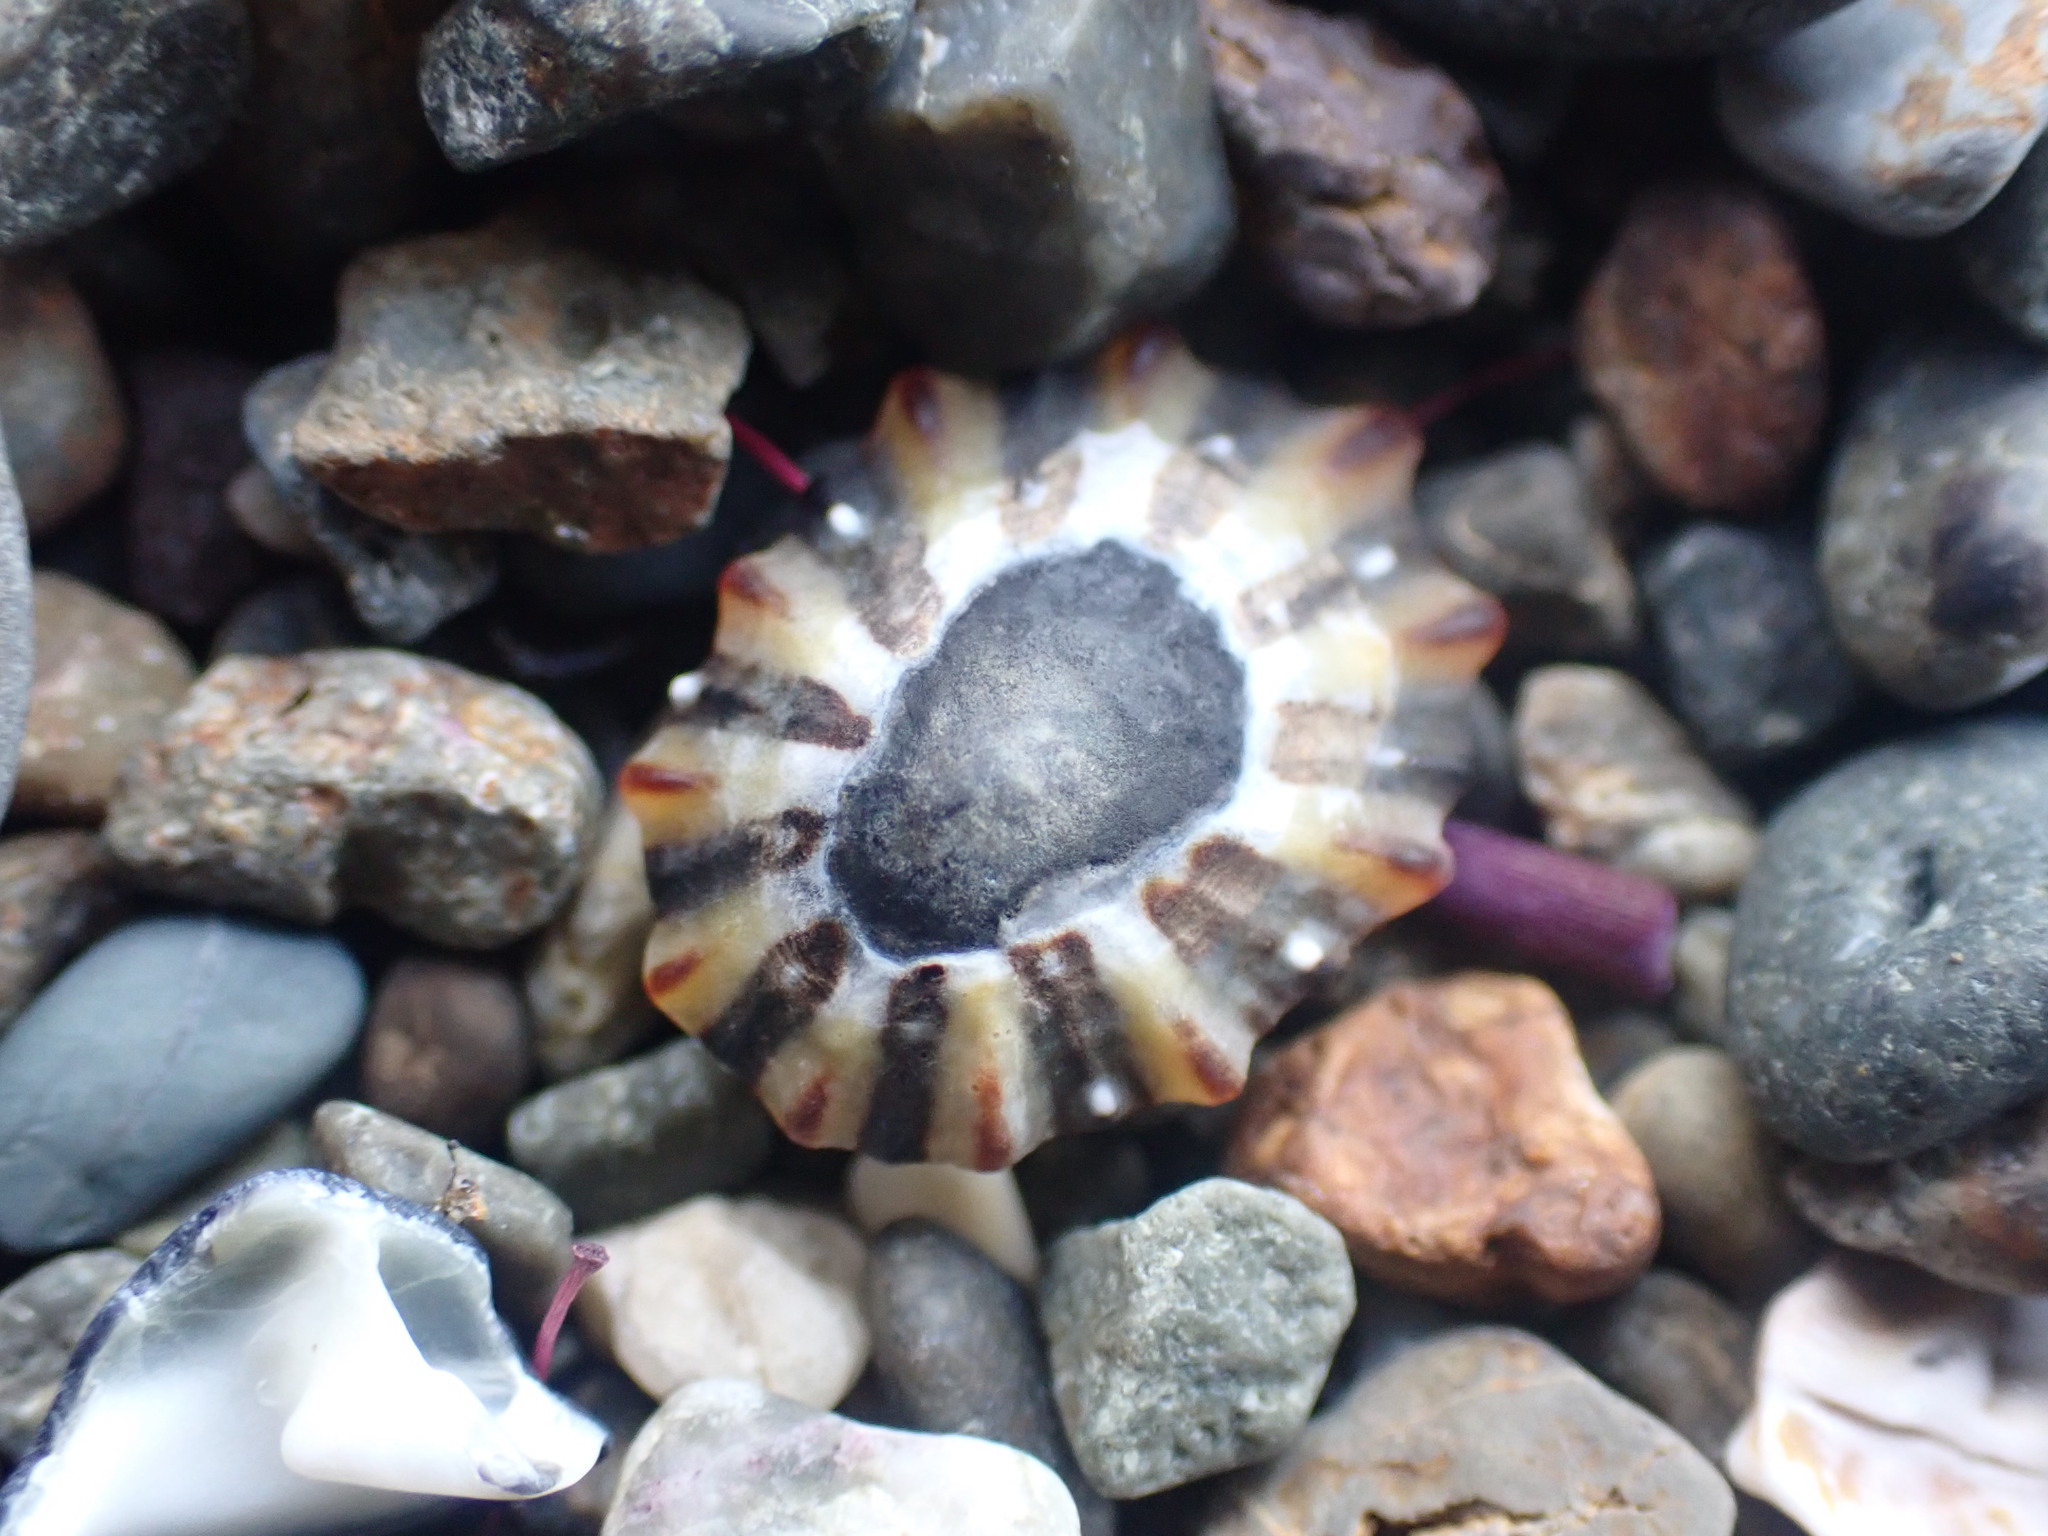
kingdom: Animalia
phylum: Mollusca
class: Gastropoda
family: Nacellidae
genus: Cellana
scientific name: Cellana ornata
